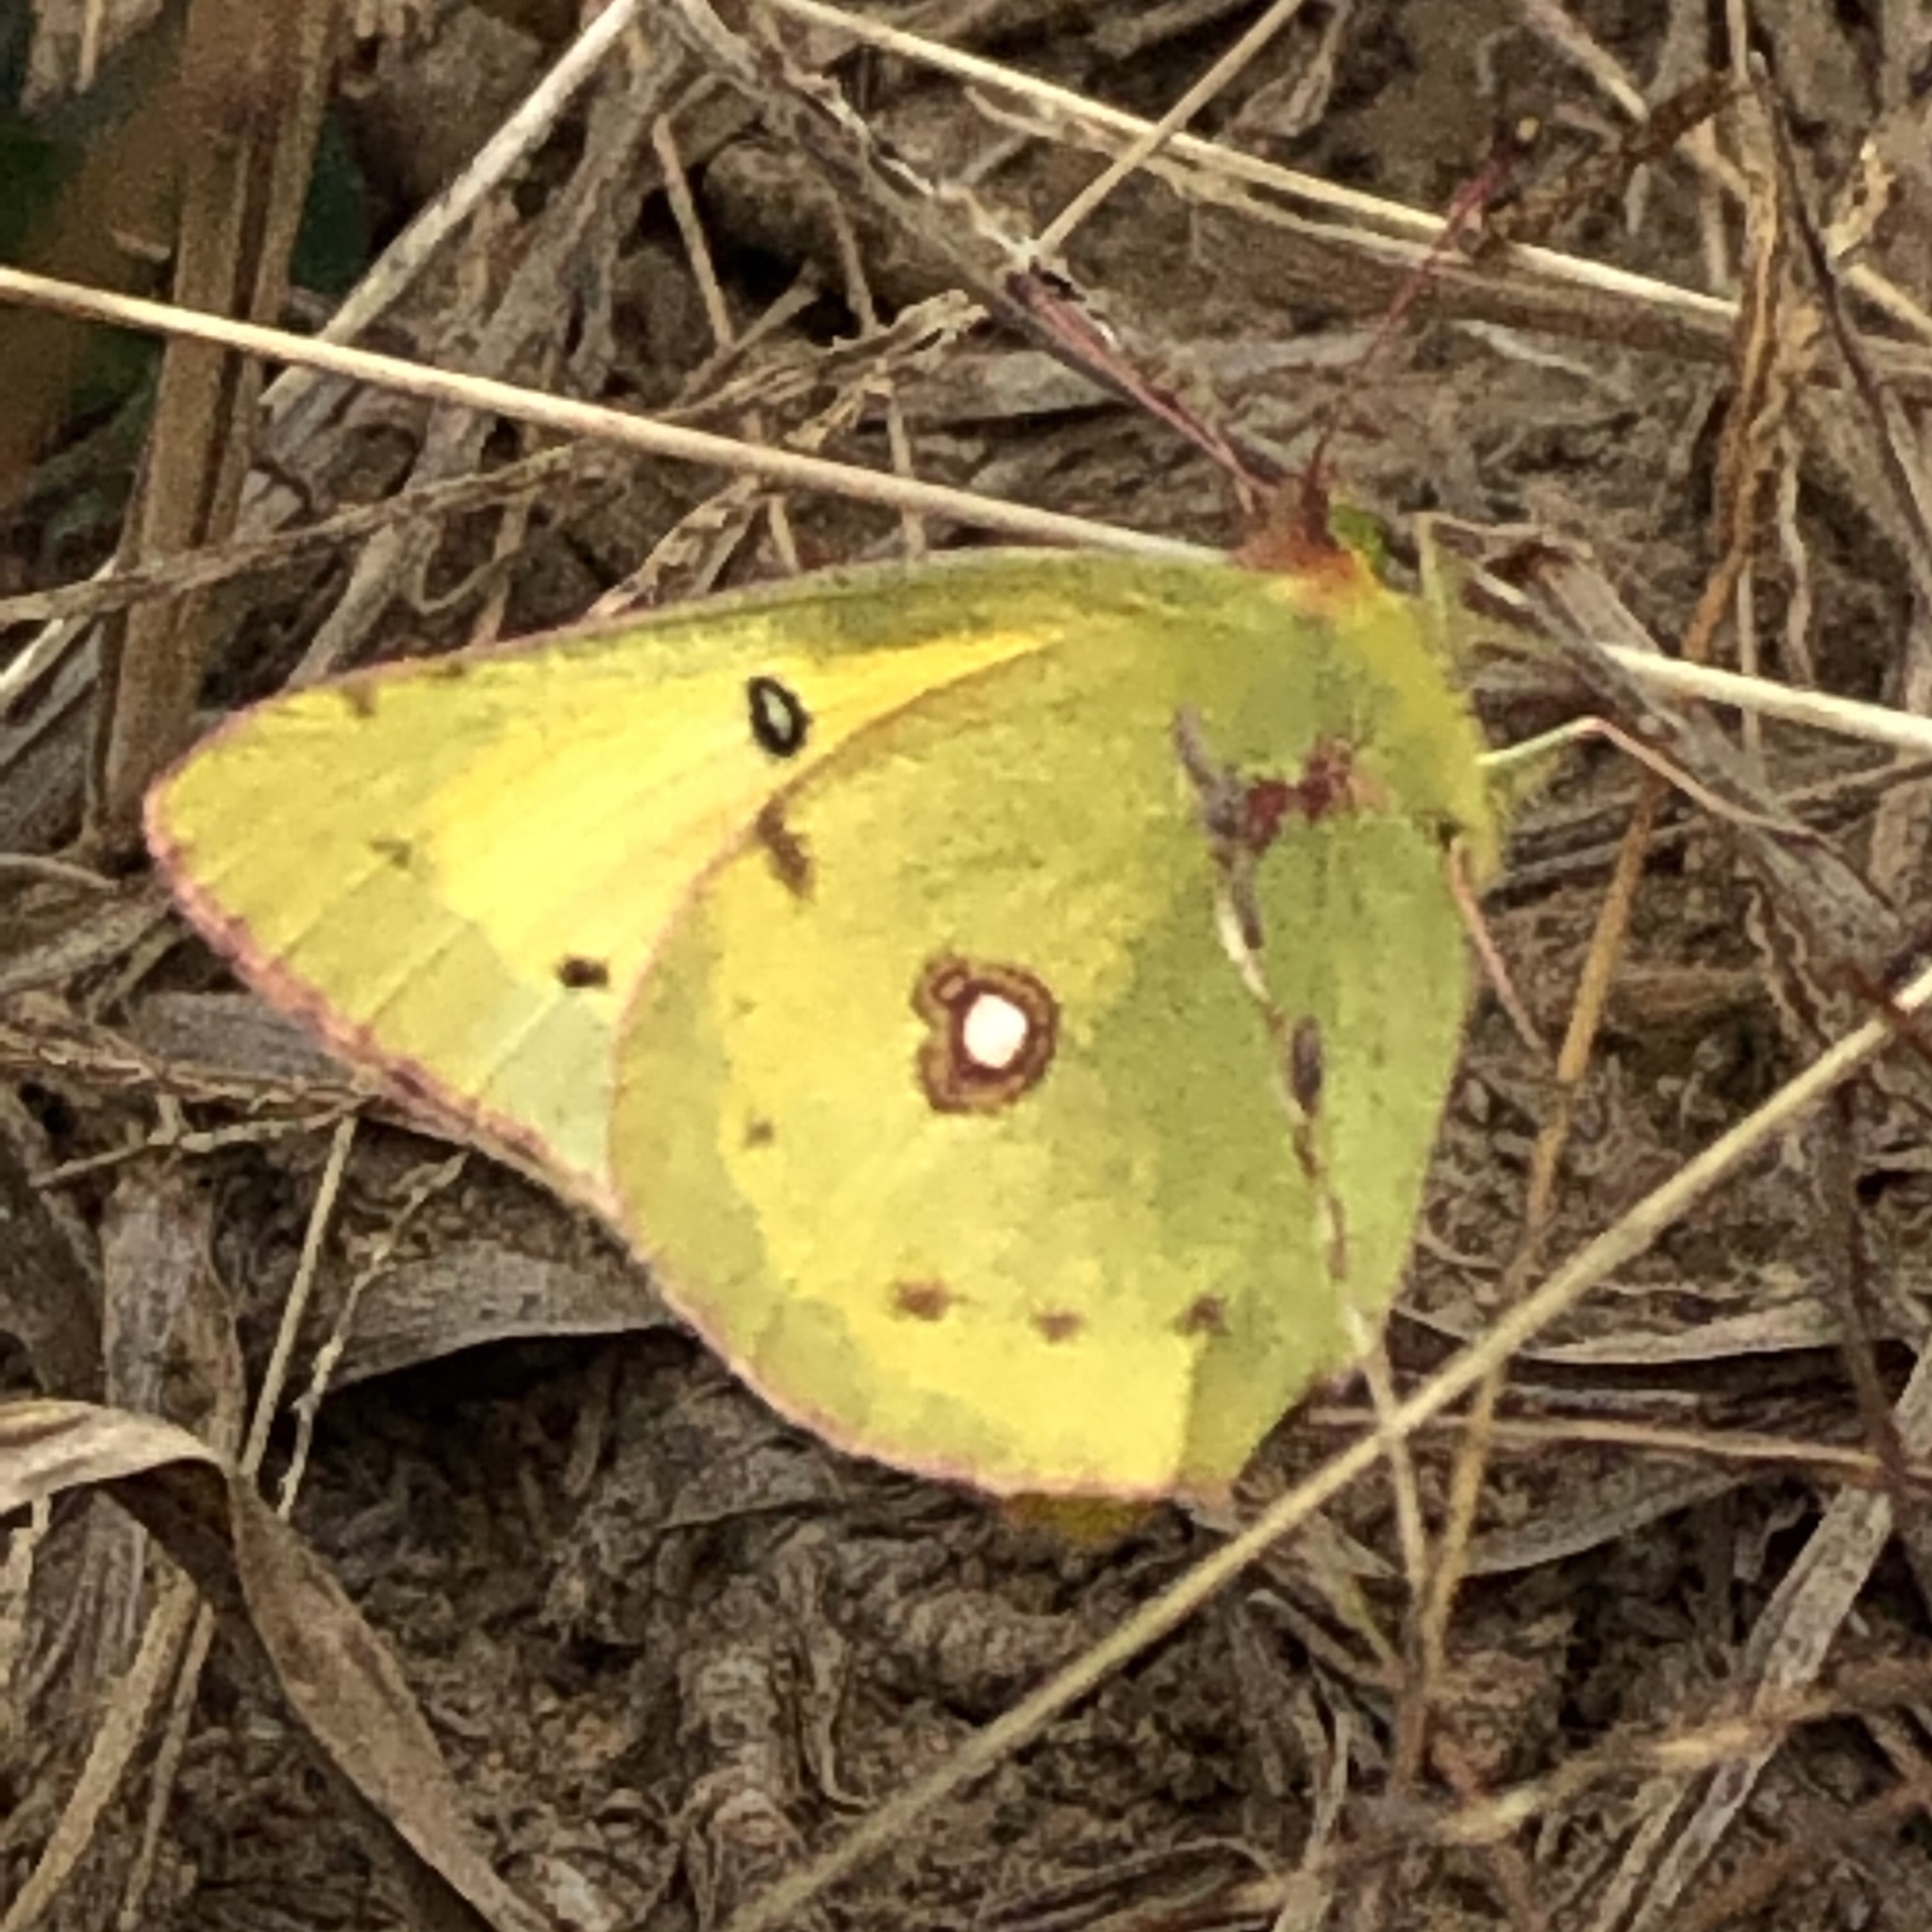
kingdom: Animalia
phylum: Arthropoda
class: Insecta
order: Lepidoptera
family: Pieridae
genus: Colias
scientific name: Colias philodice
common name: Clouded sulphur
